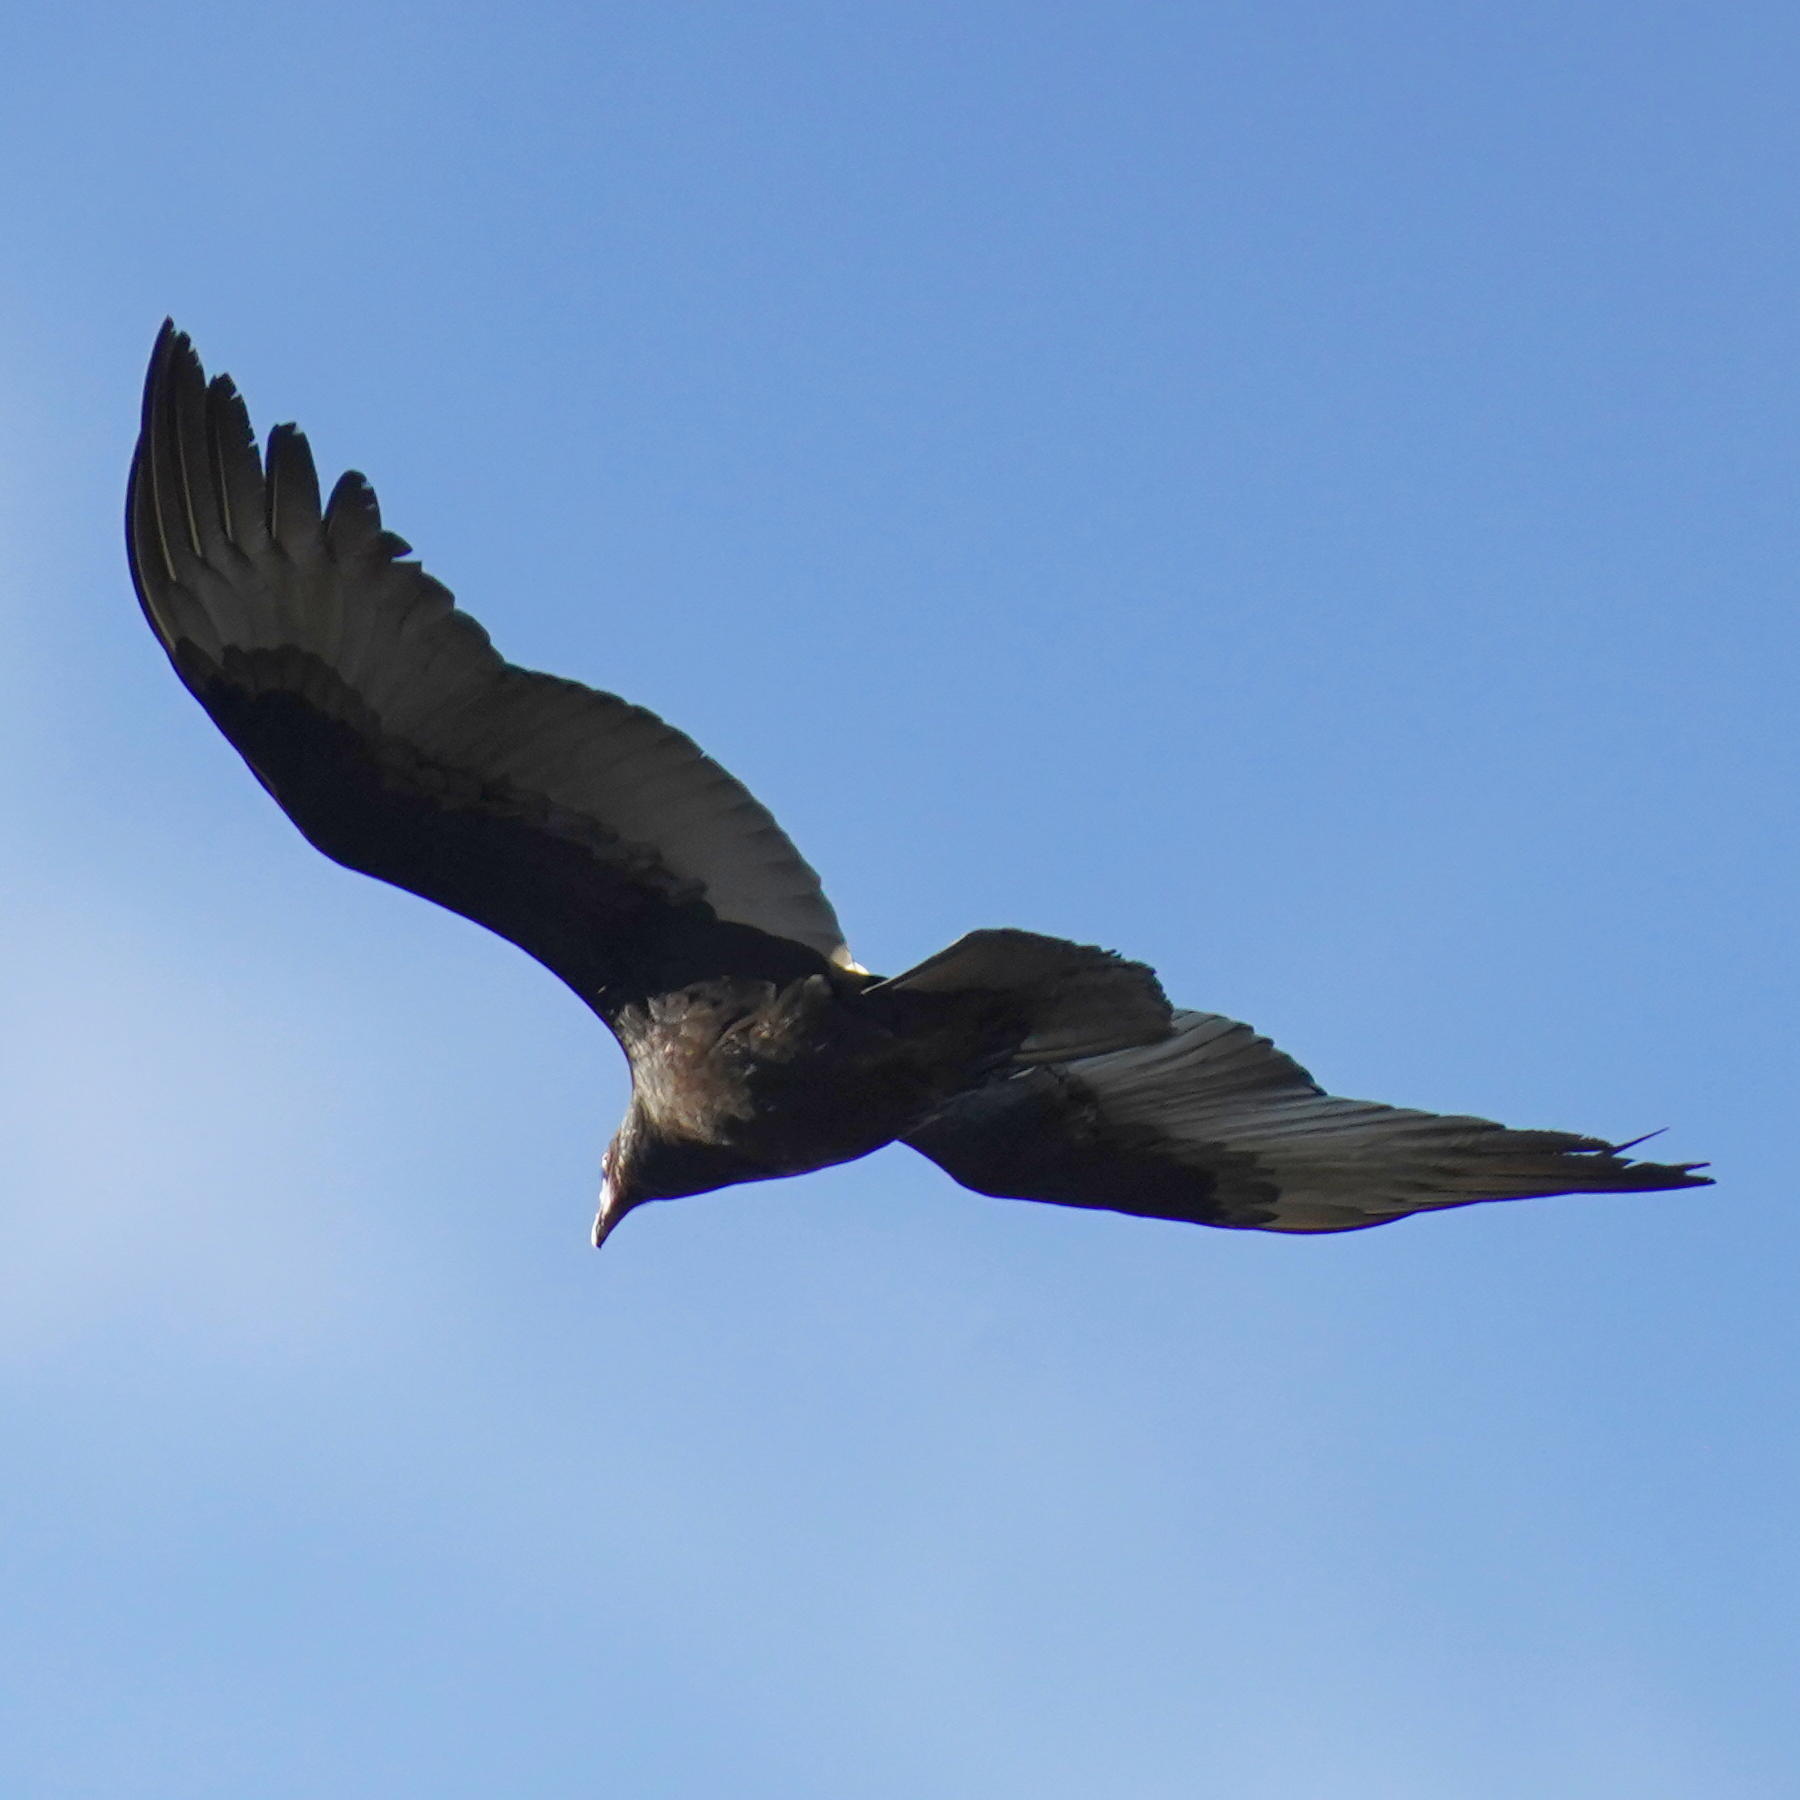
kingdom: Animalia
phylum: Chordata
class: Aves
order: Accipitriformes
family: Cathartidae
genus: Cathartes
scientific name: Cathartes aura
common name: Turkey vulture
